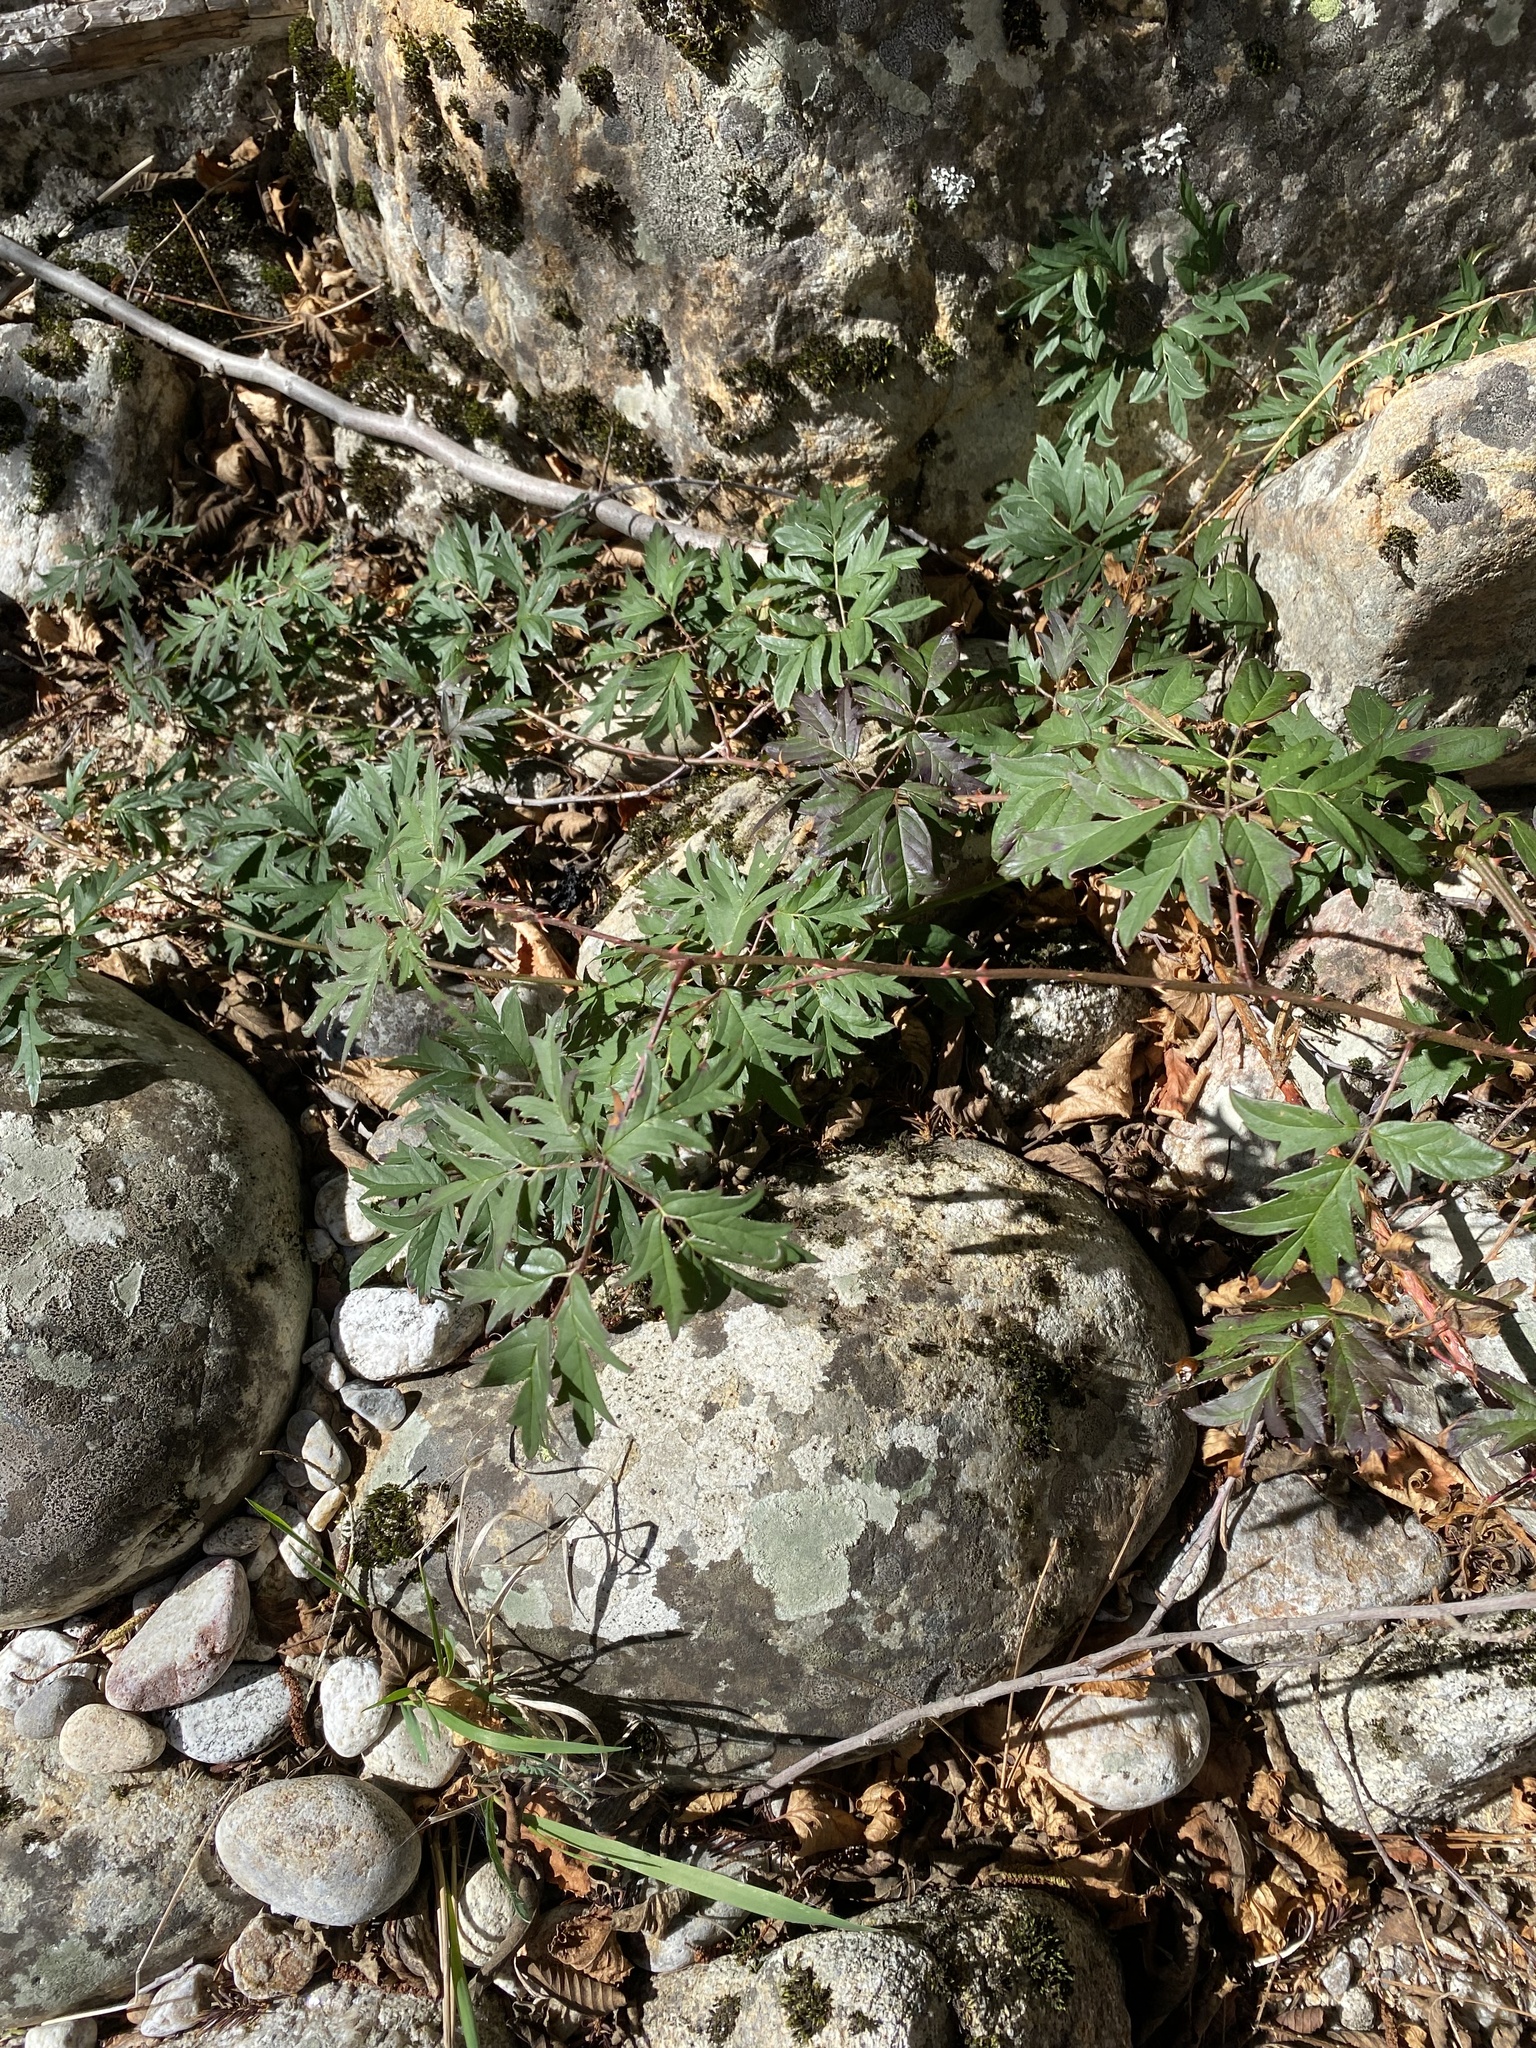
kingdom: Plantae
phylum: Tracheophyta
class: Magnoliopsida
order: Rosales
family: Rosaceae
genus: Rubus
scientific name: Rubus laciniatus
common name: Evergreen blackberry
